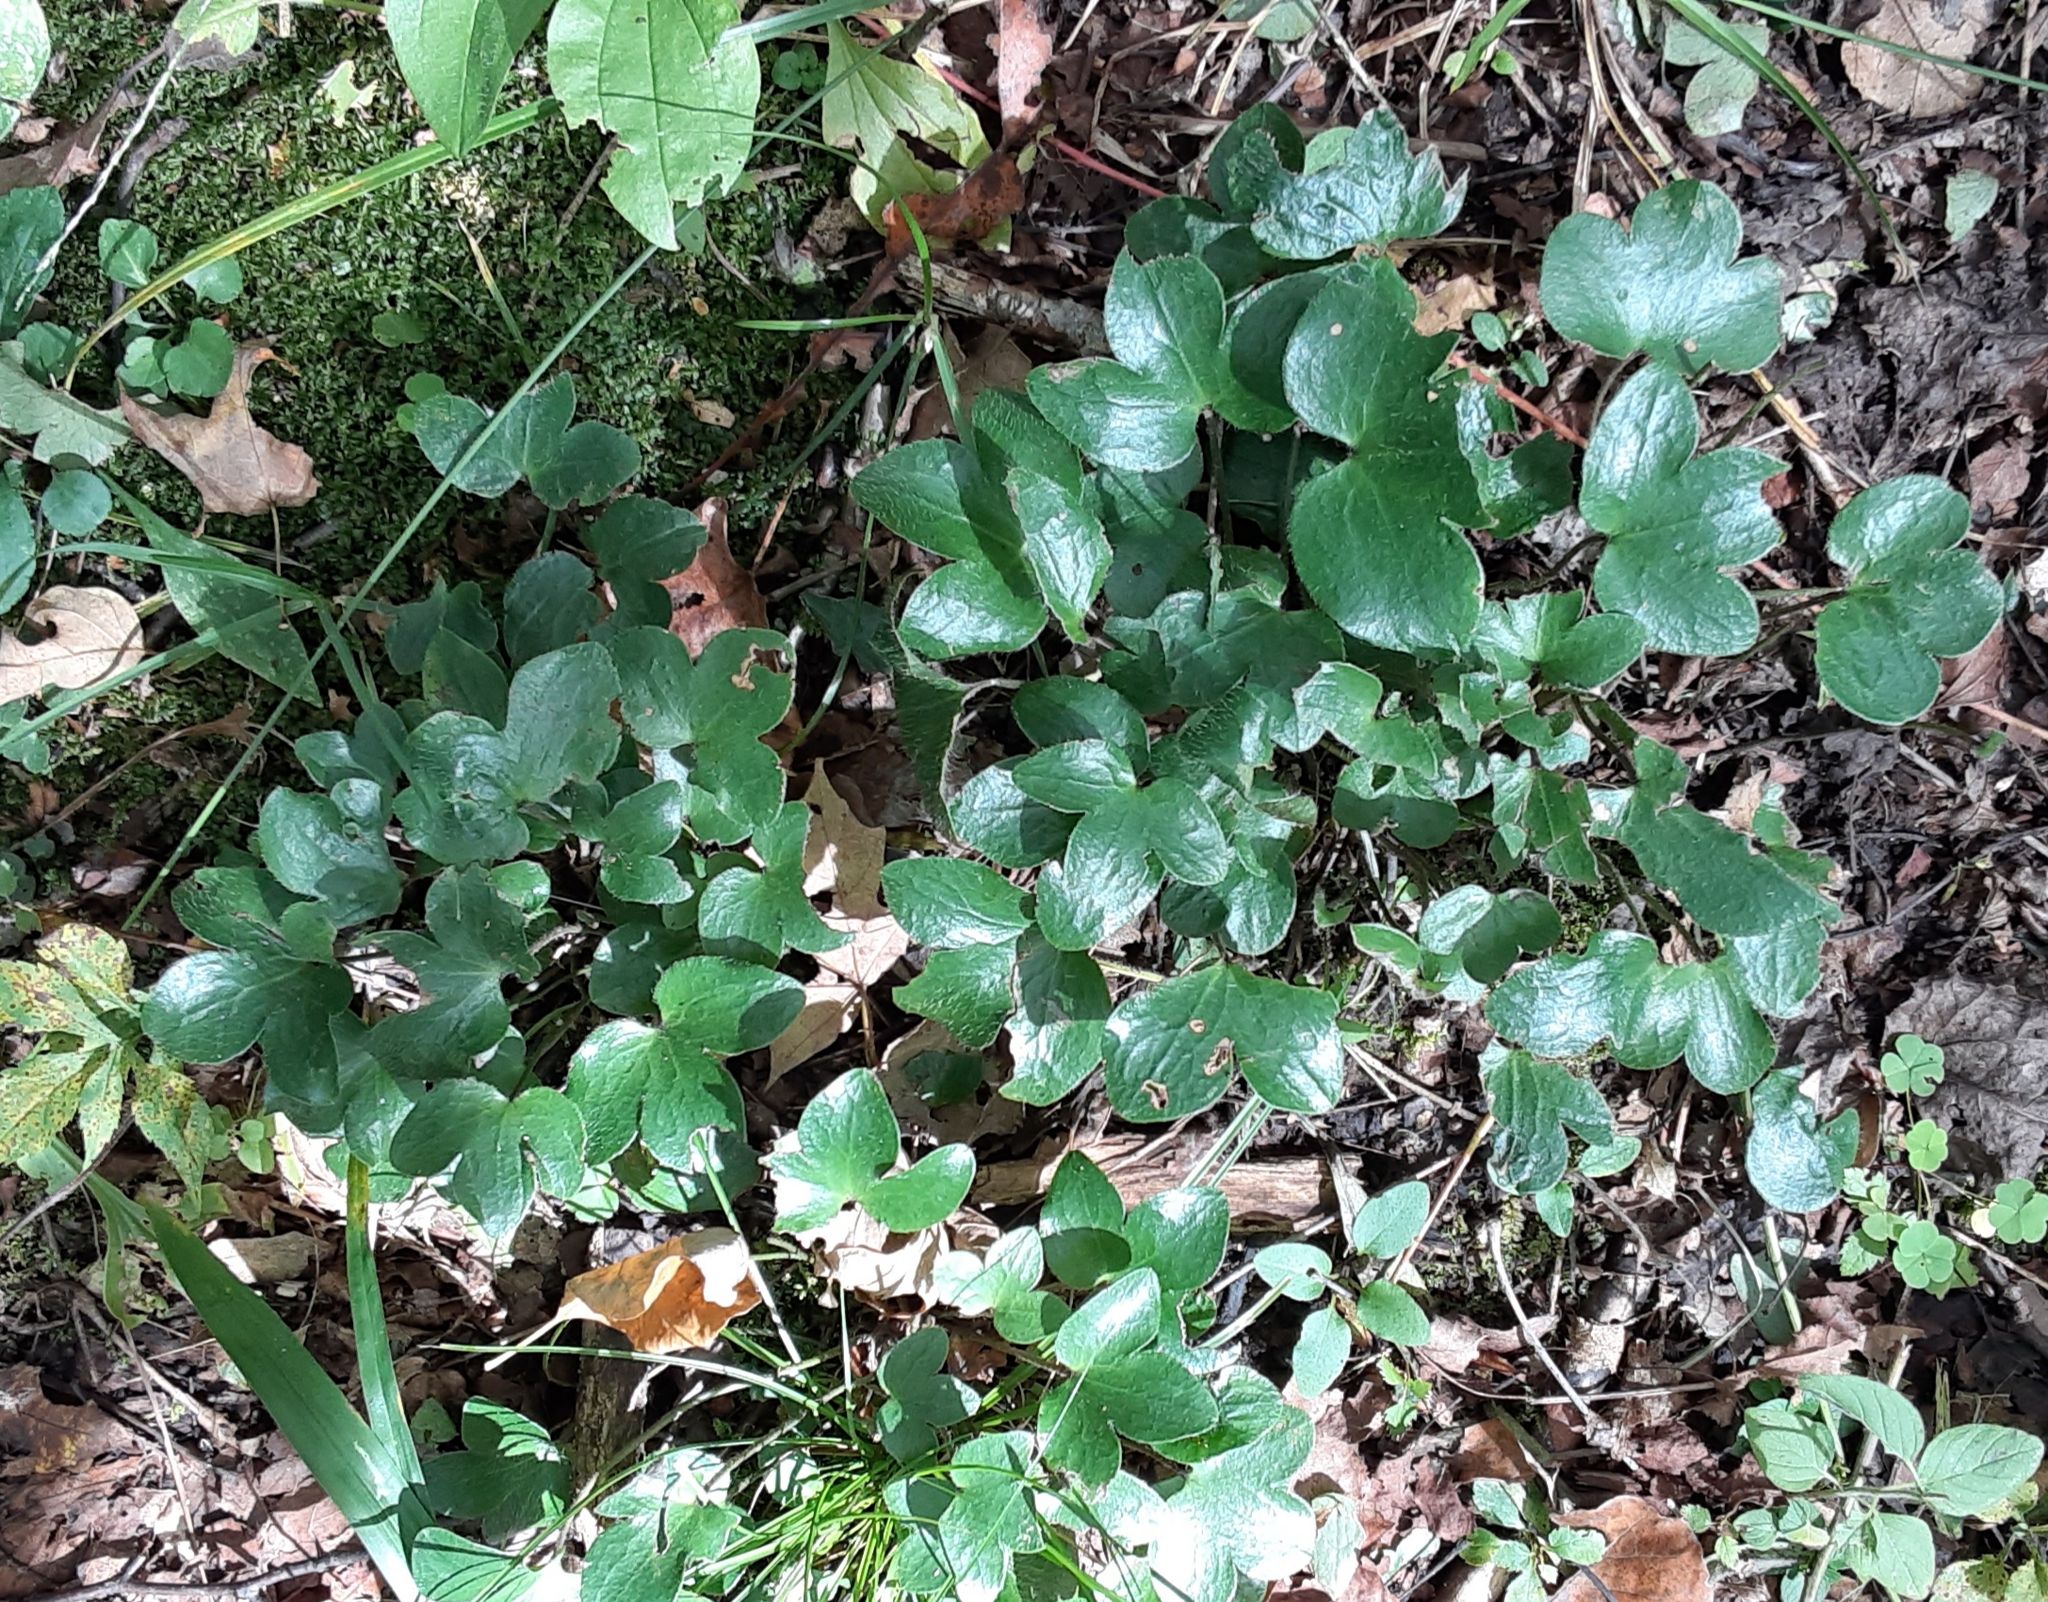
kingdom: Plantae
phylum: Tracheophyta
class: Magnoliopsida
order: Ranunculales
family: Ranunculaceae
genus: Hepatica
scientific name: Hepatica americana
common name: American hepatica
